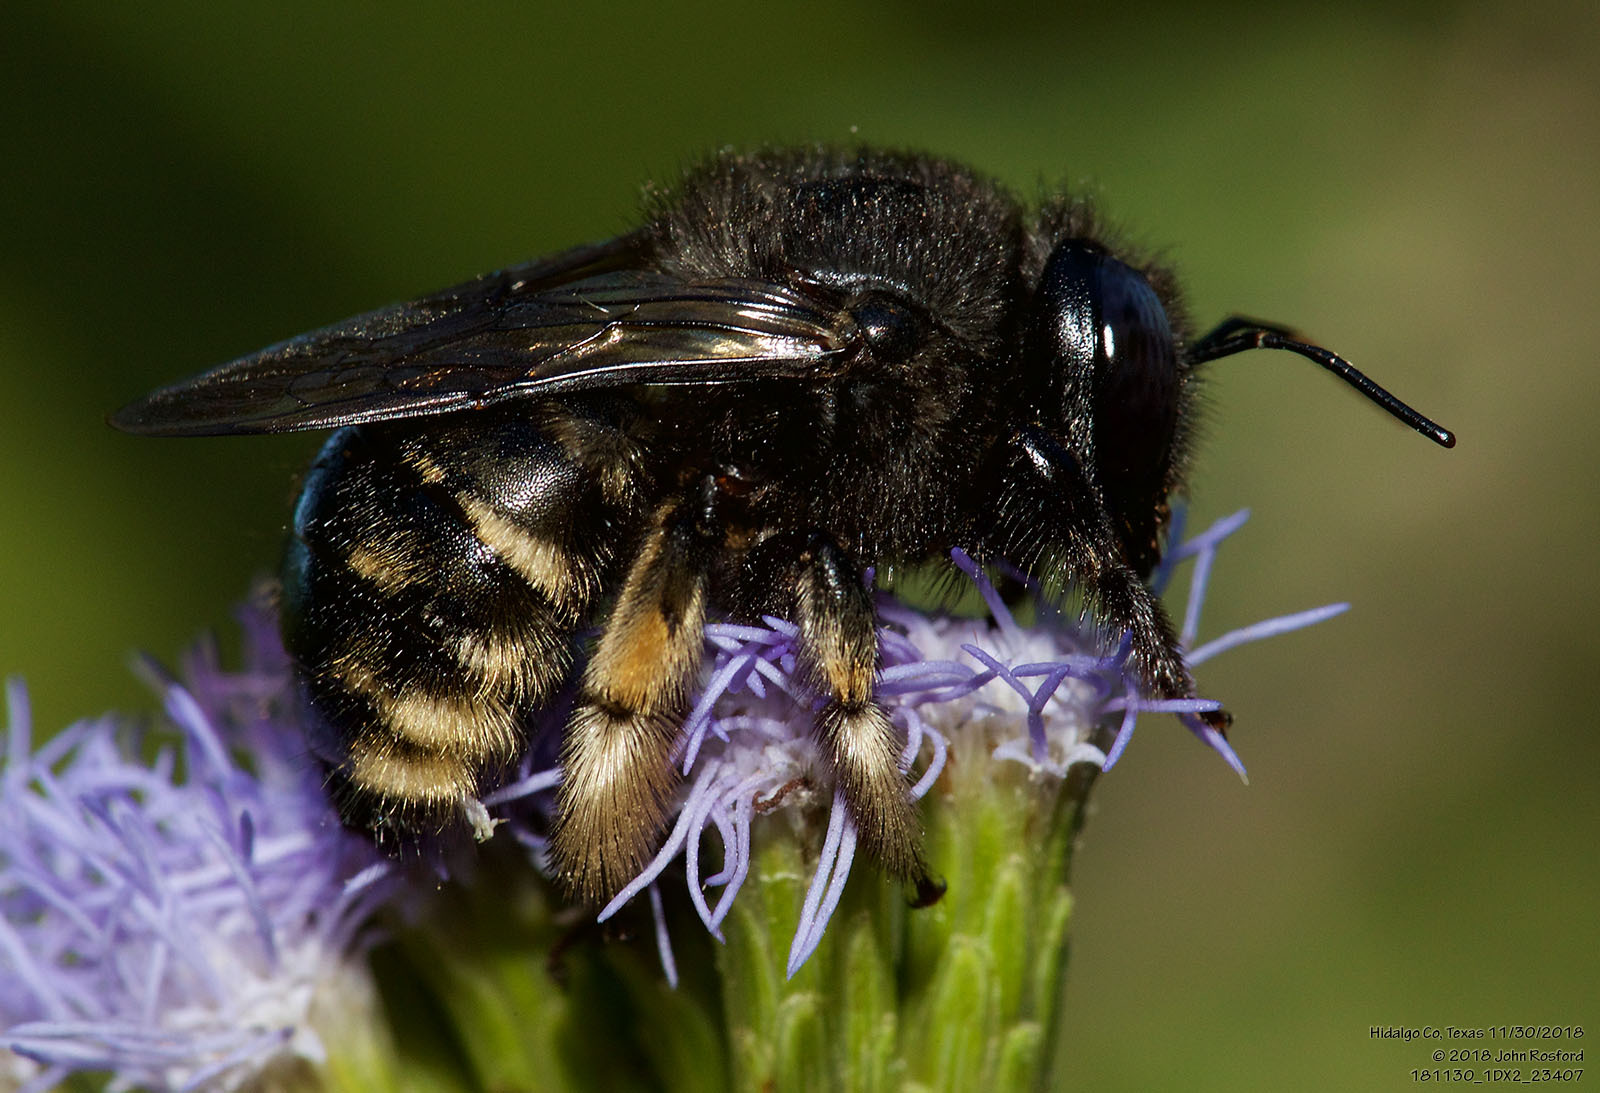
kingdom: Animalia
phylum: Arthropoda
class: Insecta
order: Hymenoptera
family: Apidae
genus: Xylocopa
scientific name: Xylocopa tabaniformis
